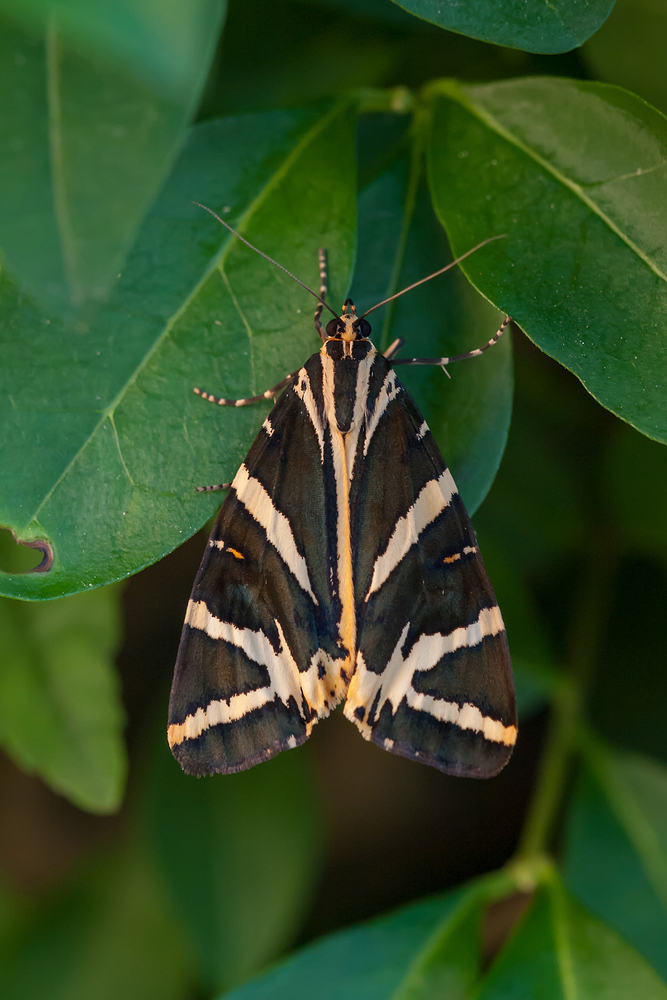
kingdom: Animalia
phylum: Arthropoda
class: Insecta
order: Lepidoptera
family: Erebidae
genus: Euplagia
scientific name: Euplagia quadripunctaria
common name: Jersey tiger
